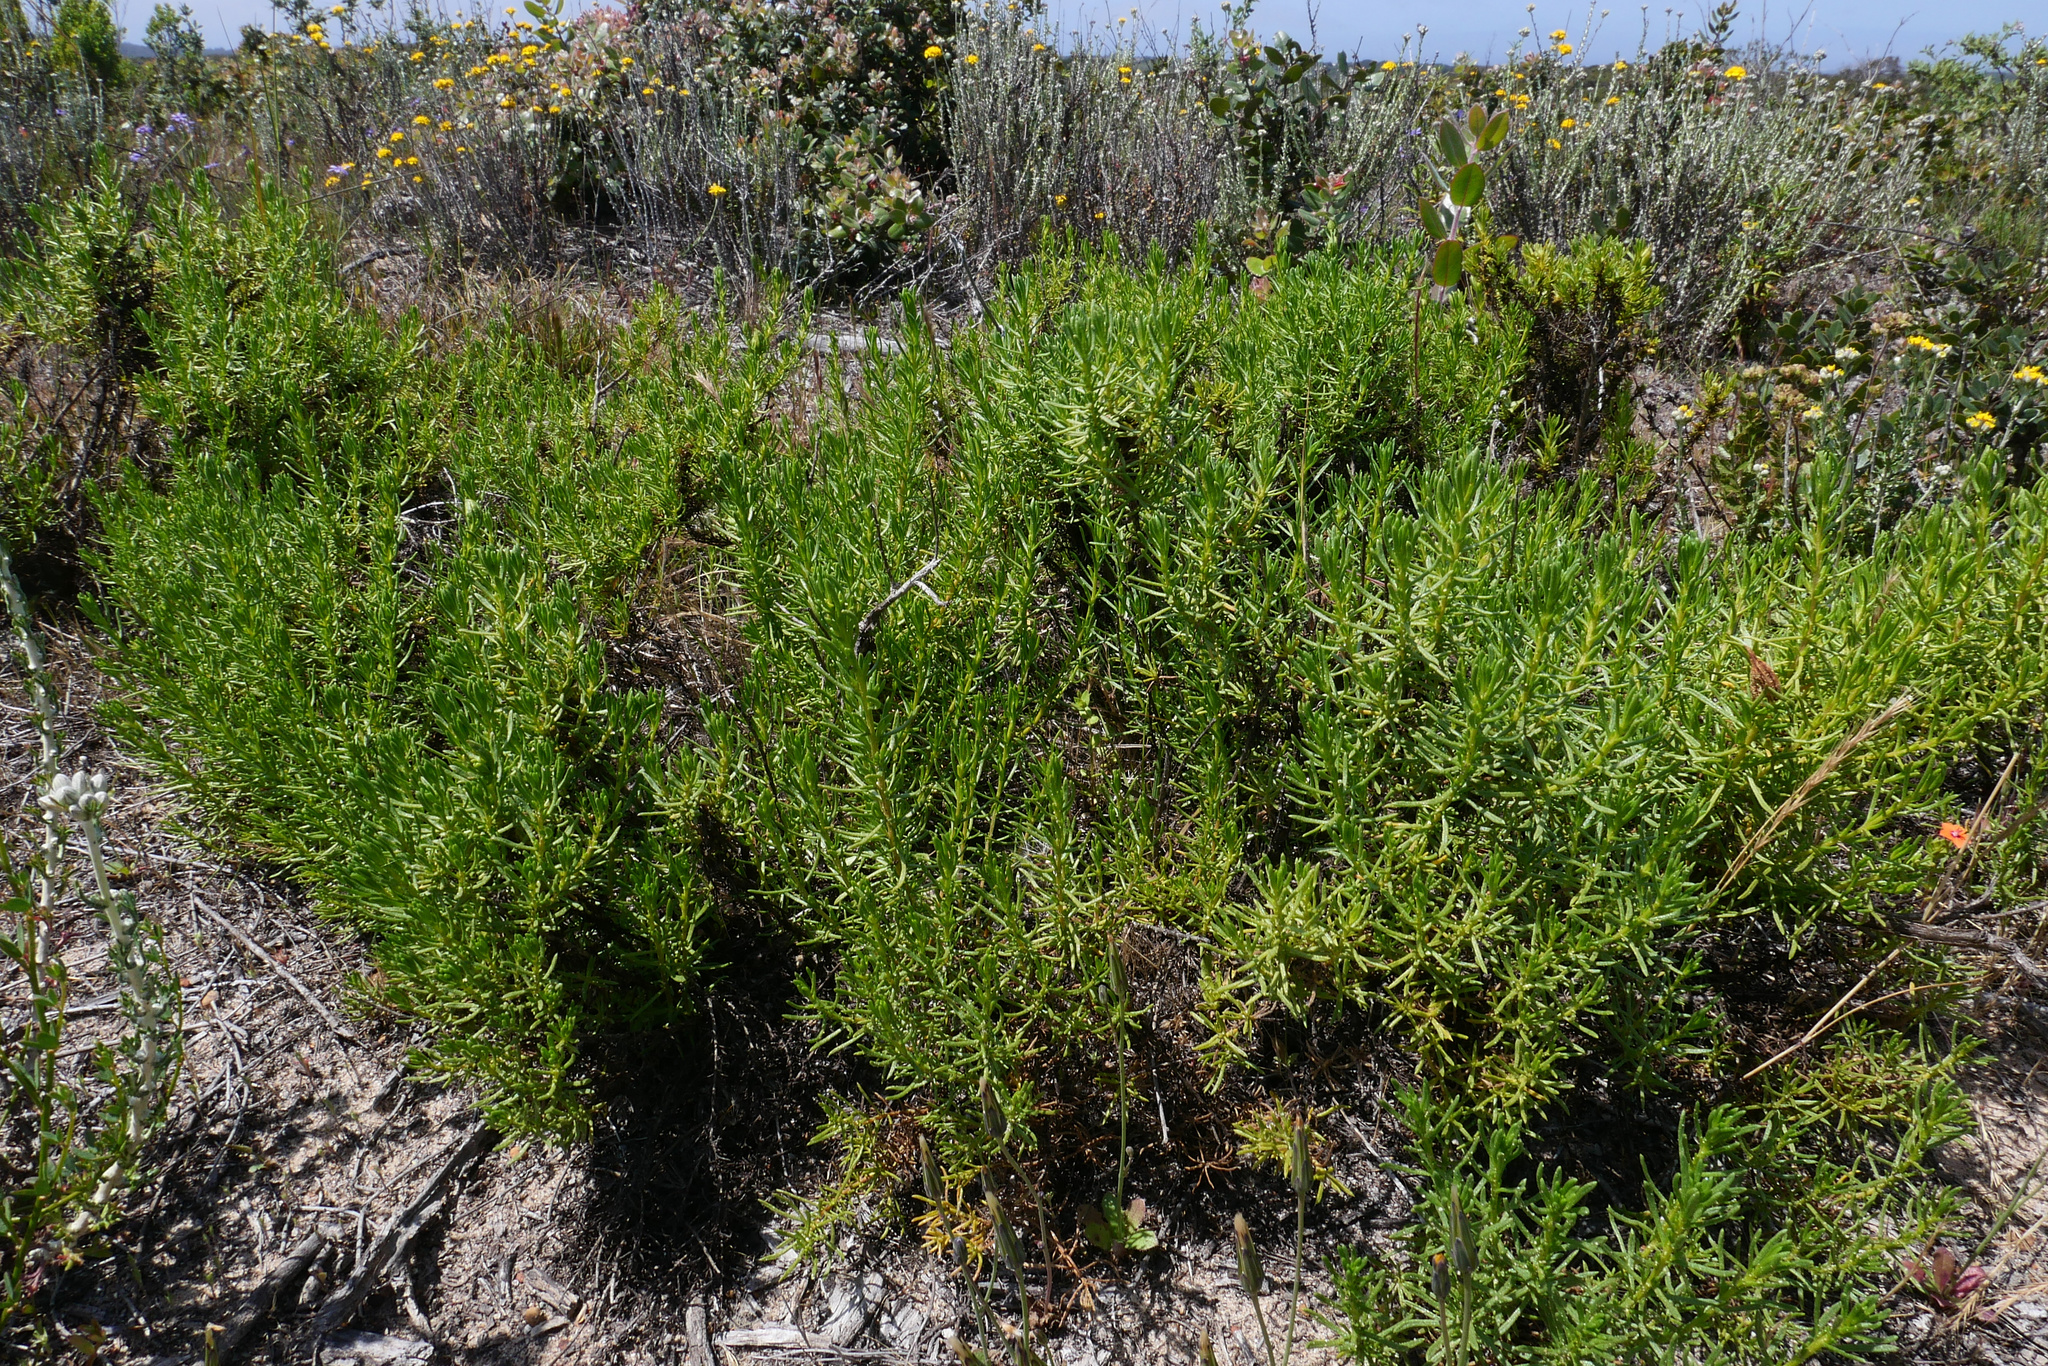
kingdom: Plantae
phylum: Tracheophyta
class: Magnoliopsida
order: Asterales
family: Asteraceae
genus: Ericameria
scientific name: Ericameria fasciculata
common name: Eastwood's goldenbush
